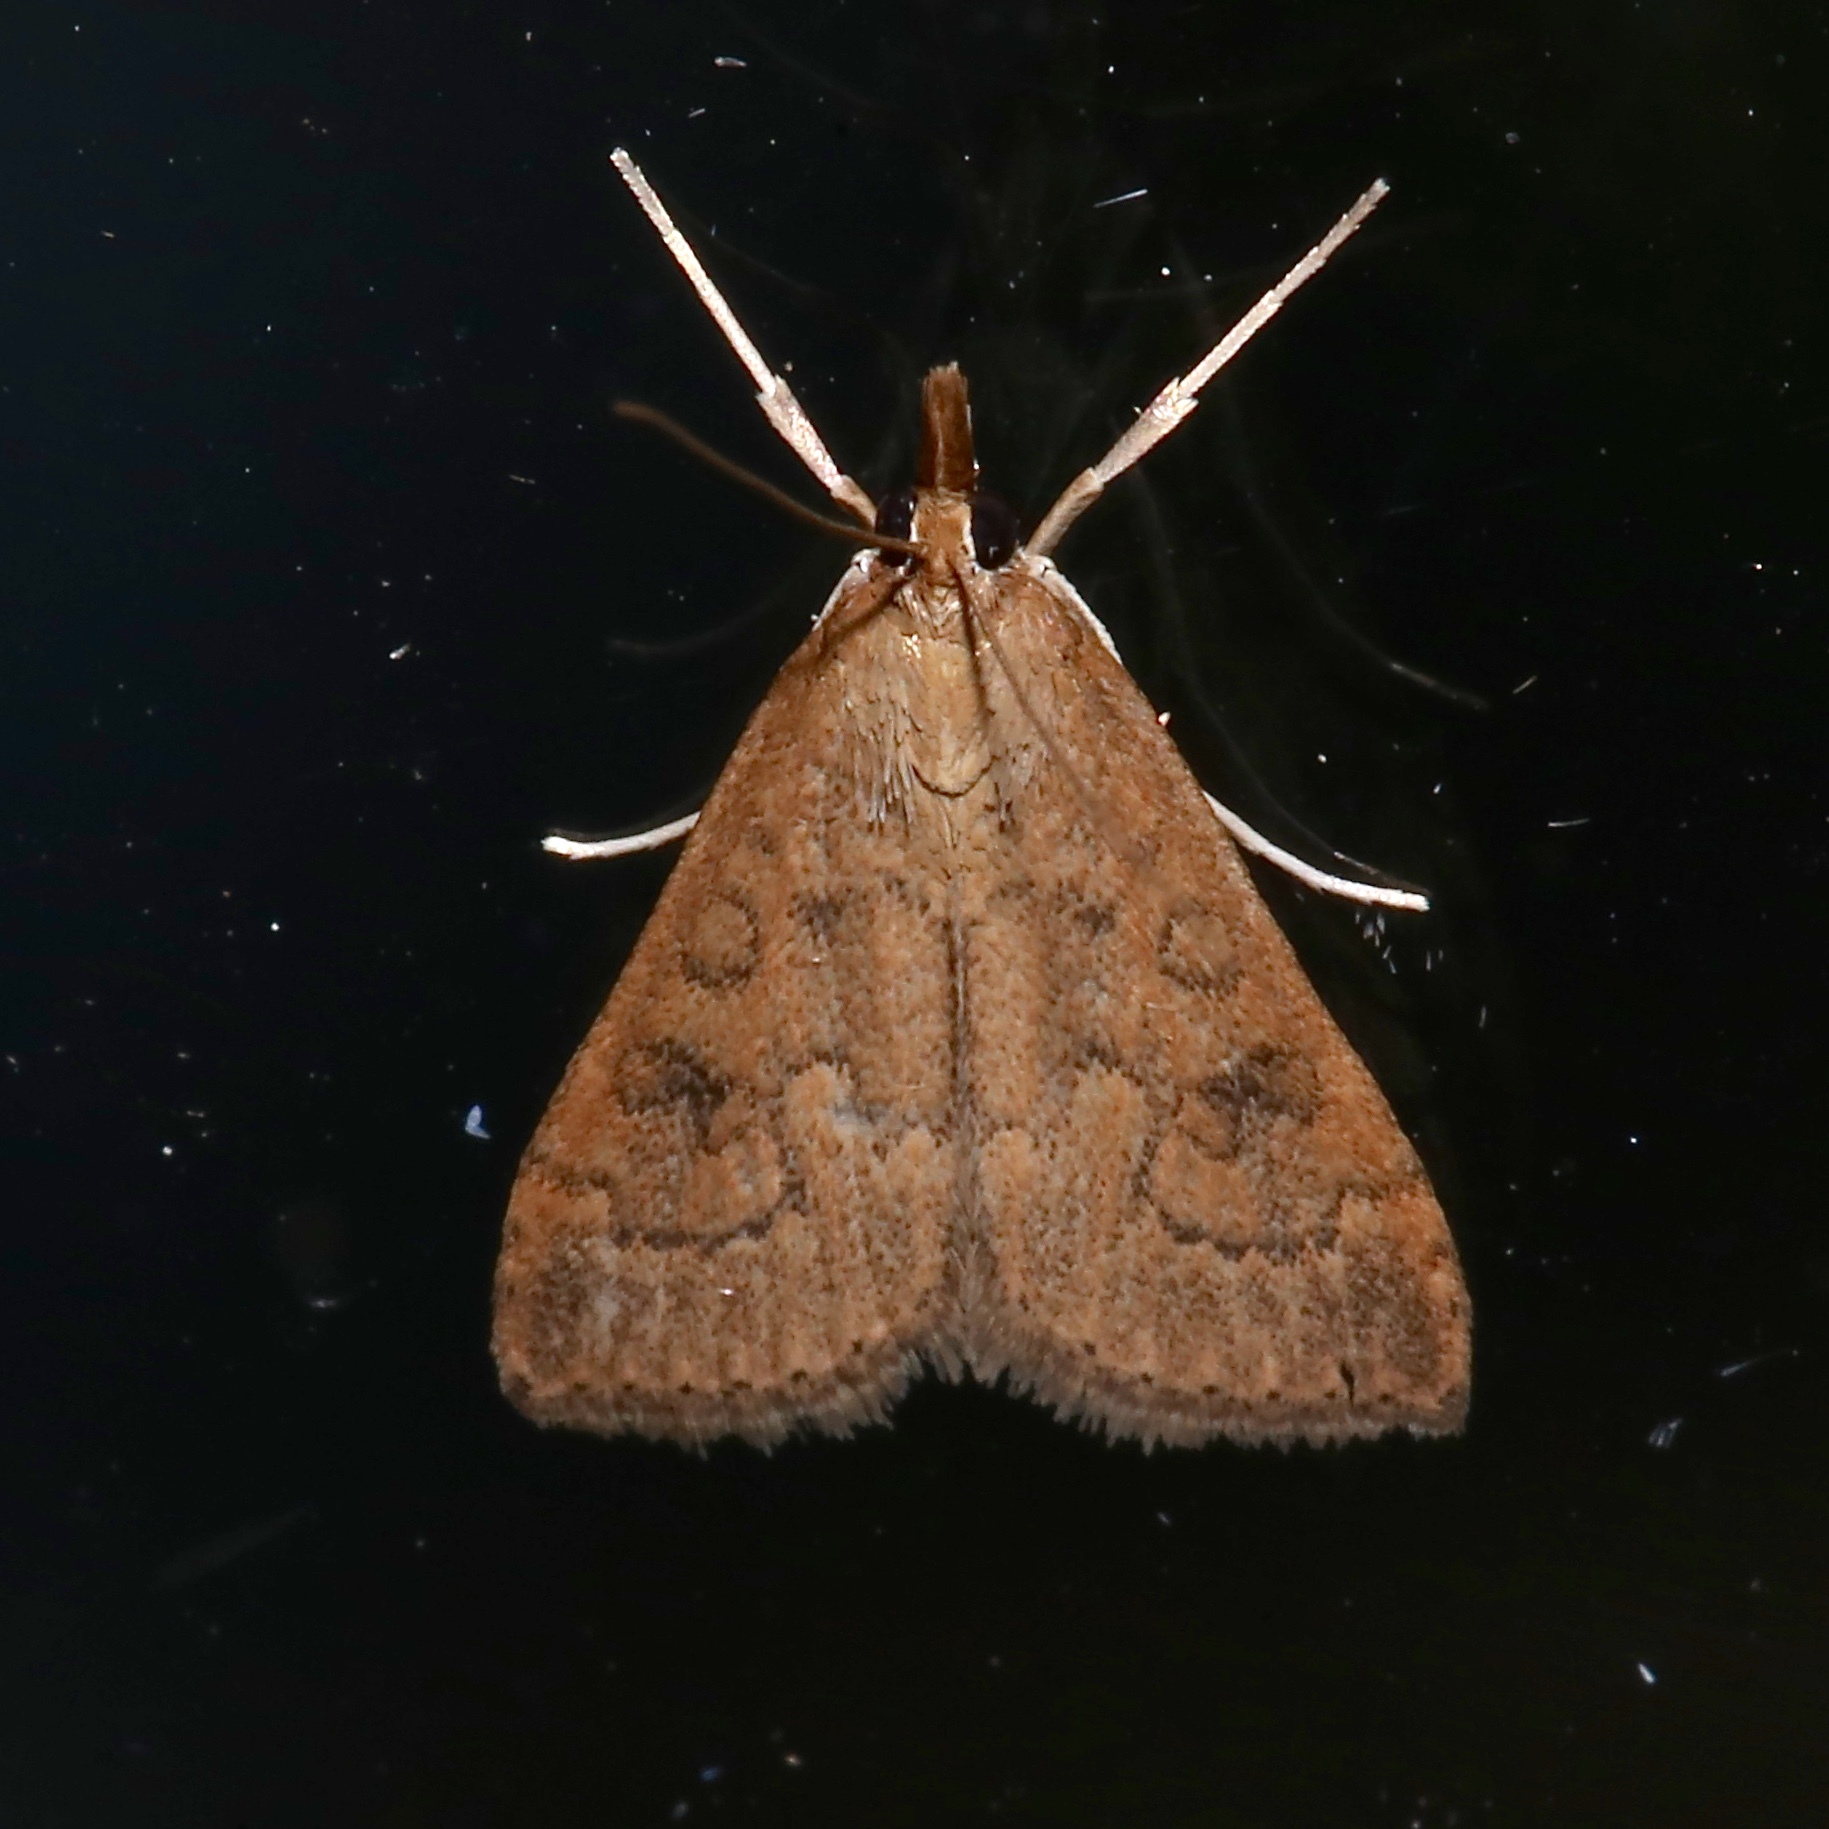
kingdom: Animalia
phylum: Arthropoda
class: Insecta
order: Lepidoptera
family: Crambidae
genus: Udea
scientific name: Udea rubigalis
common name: Celery leaftier moth
